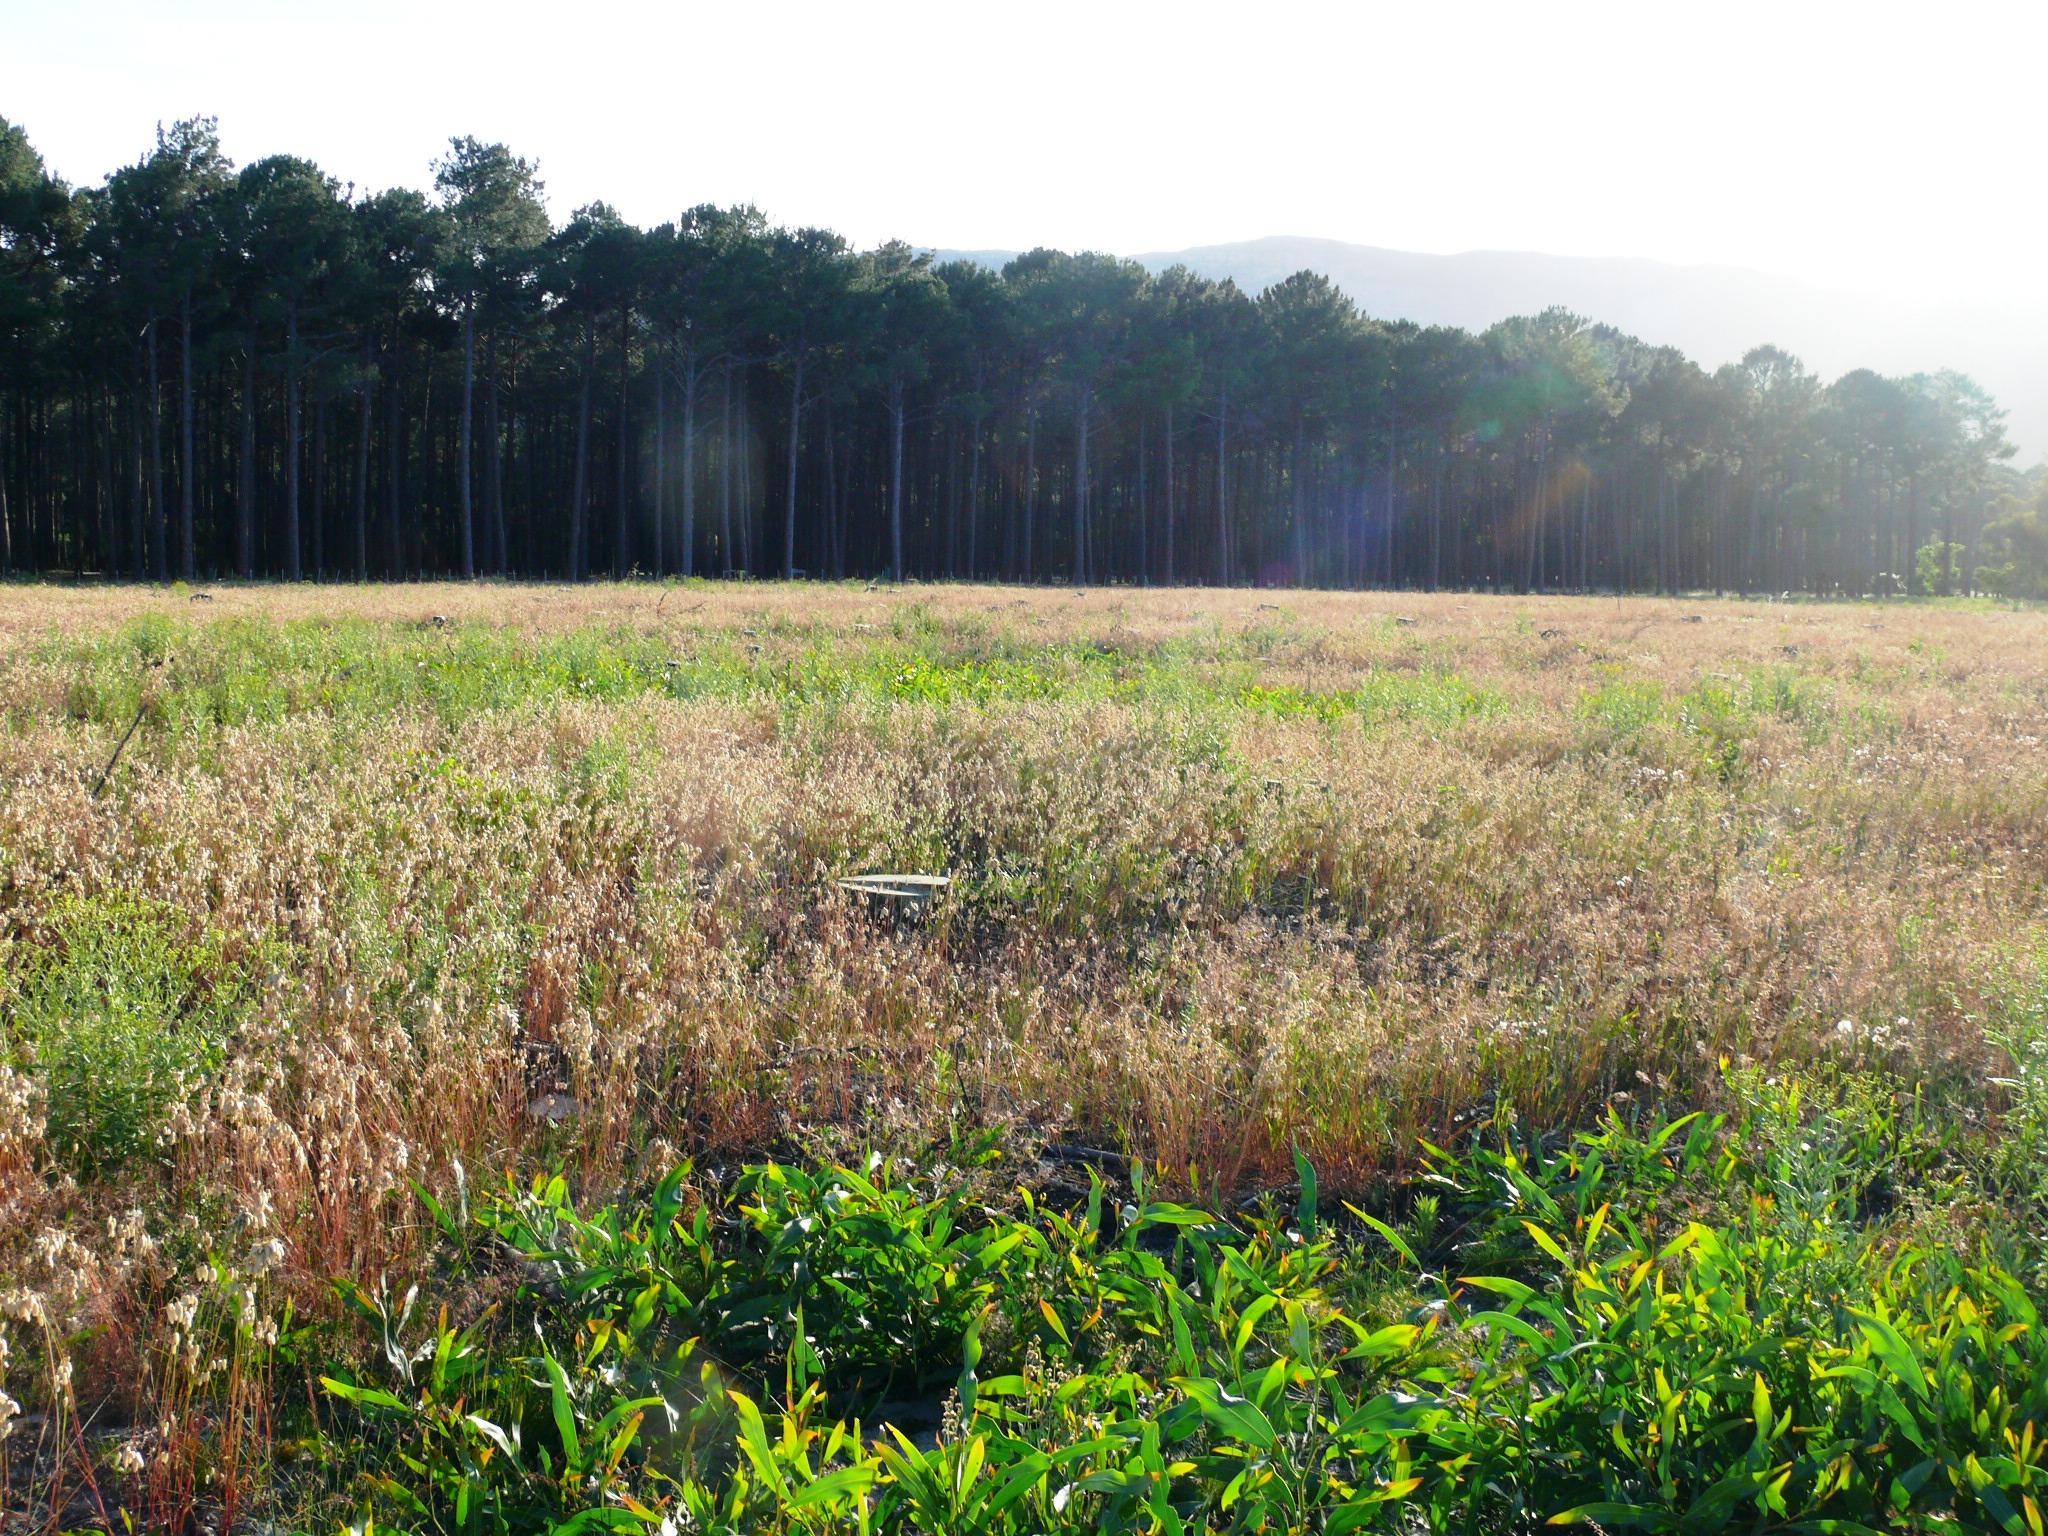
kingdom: Plantae
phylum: Tracheophyta
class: Magnoliopsida
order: Fabales
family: Fabaceae
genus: Acacia
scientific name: Acacia saligna
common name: Orange wattle
